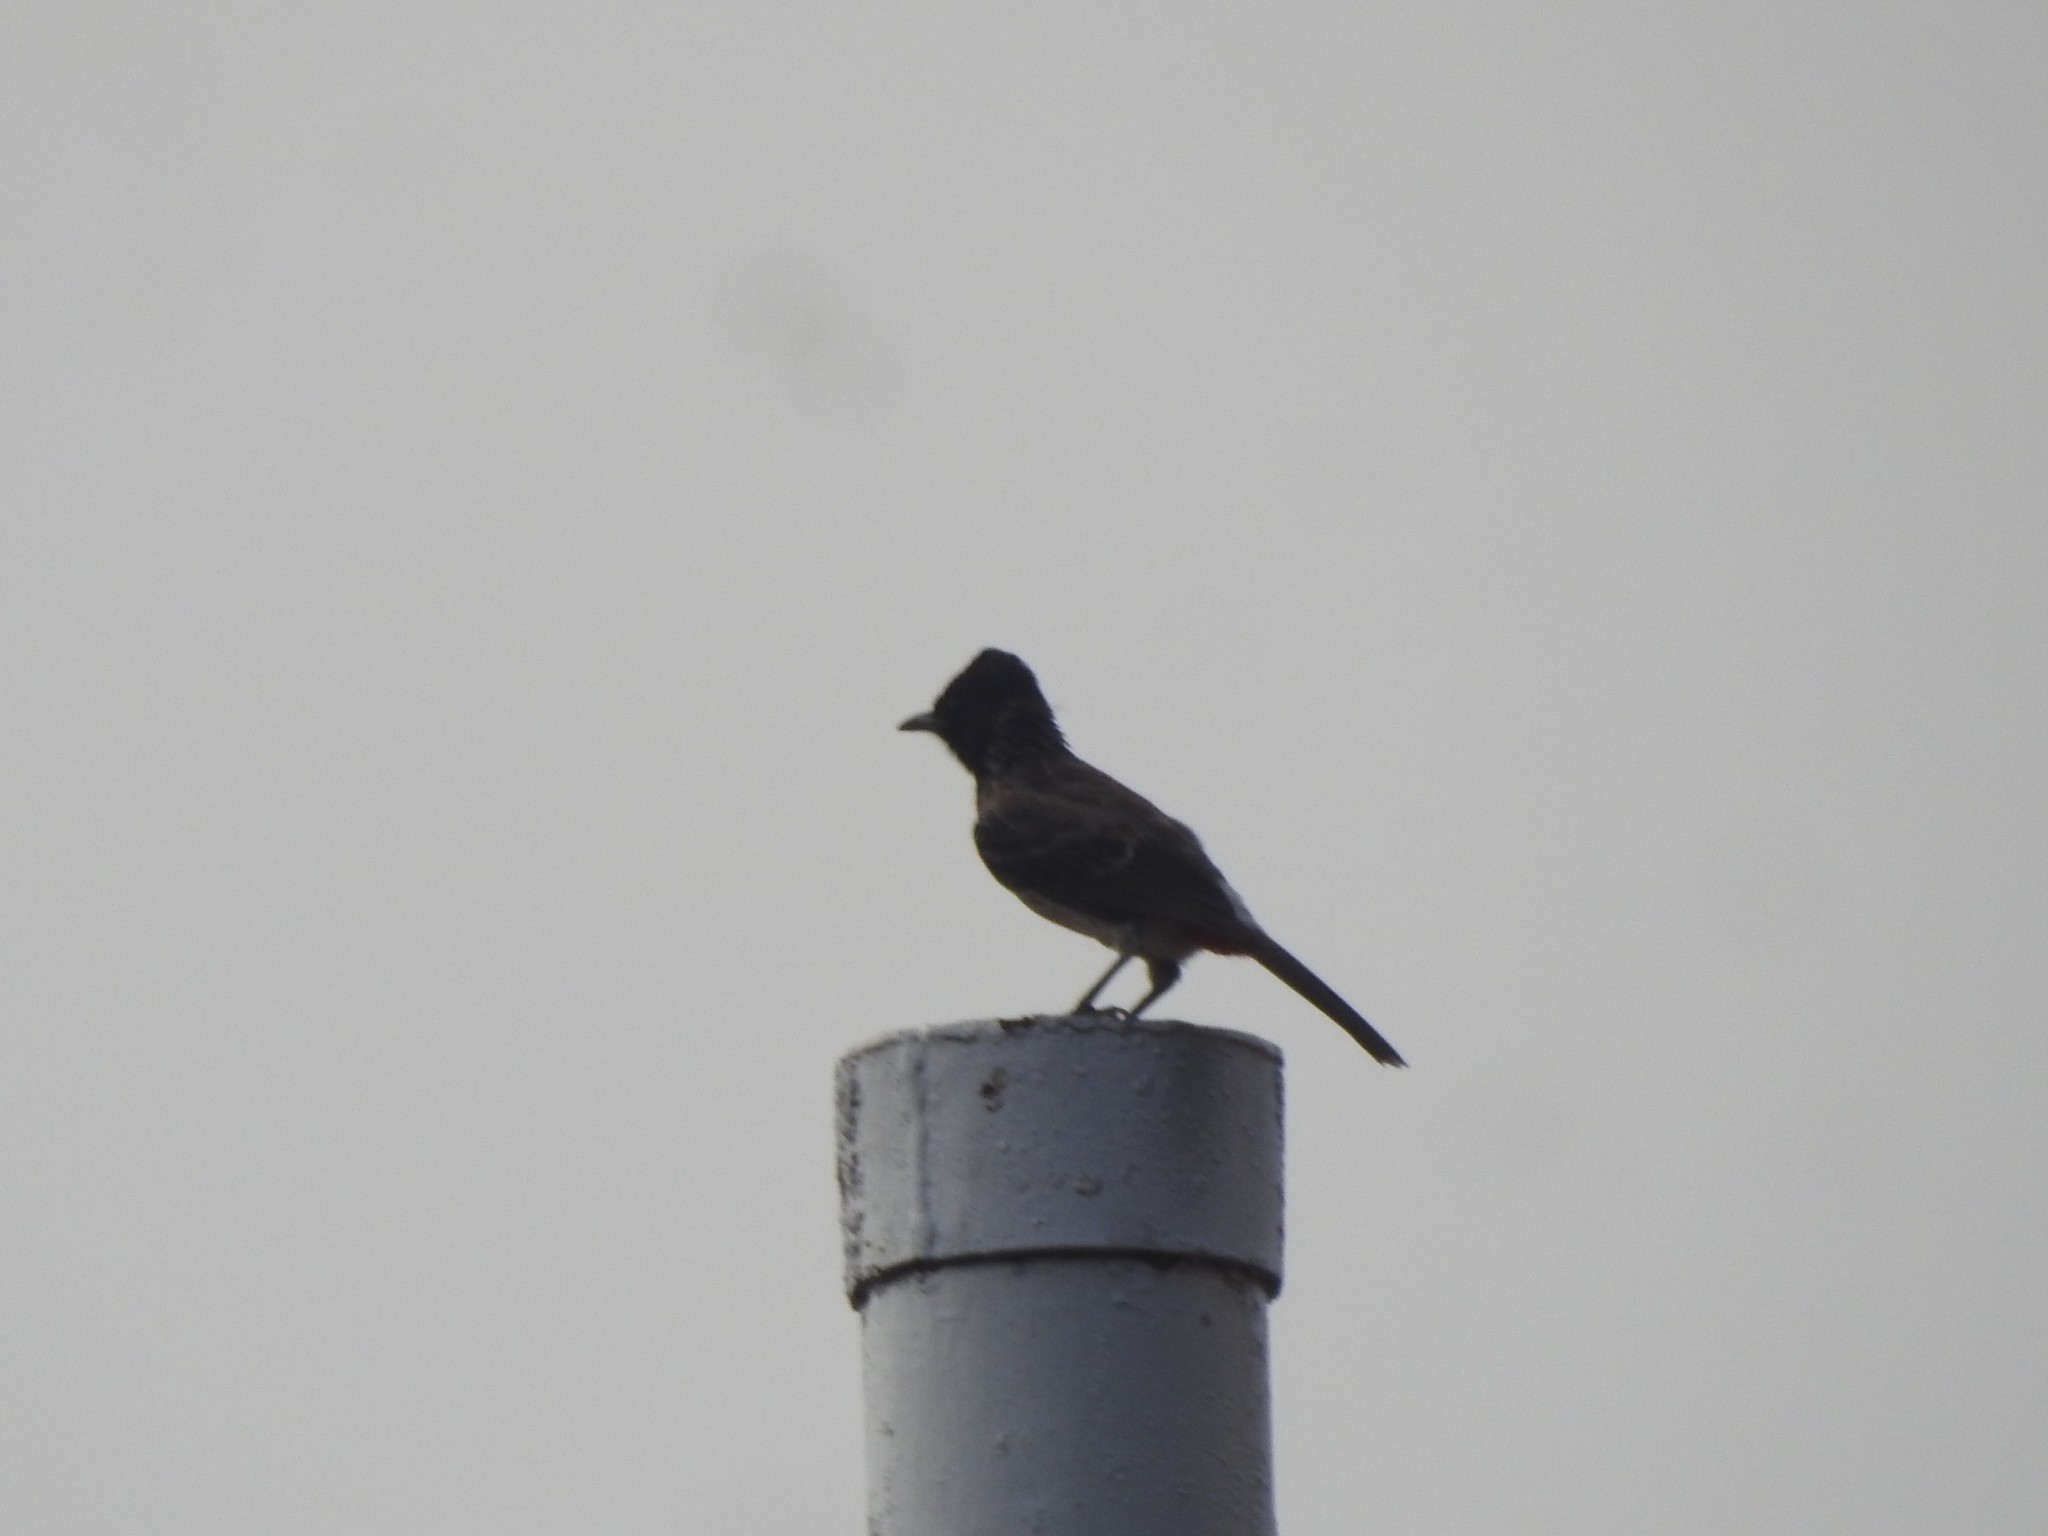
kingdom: Animalia
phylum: Chordata
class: Aves
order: Passeriformes
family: Pycnonotidae
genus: Pycnonotus
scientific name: Pycnonotus cafer
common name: Red-vented bulbul
